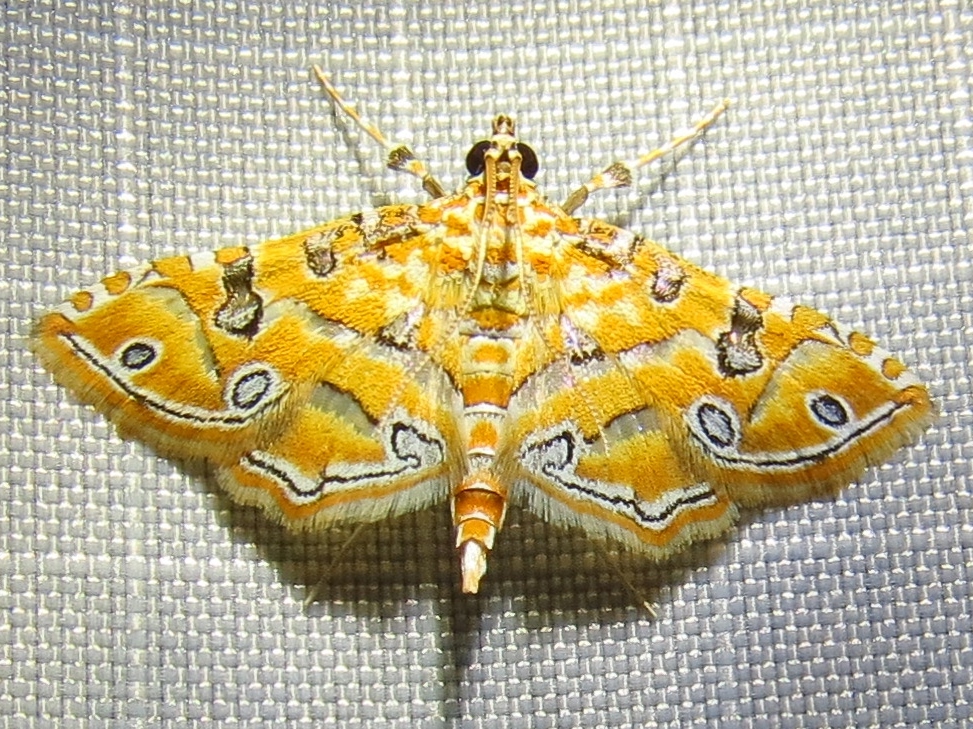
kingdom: Animalia
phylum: Arthropoda
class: Insecta
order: Lepidoptera
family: Crambidae
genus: Ommatospila
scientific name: Ommatospila narcaeusalis
